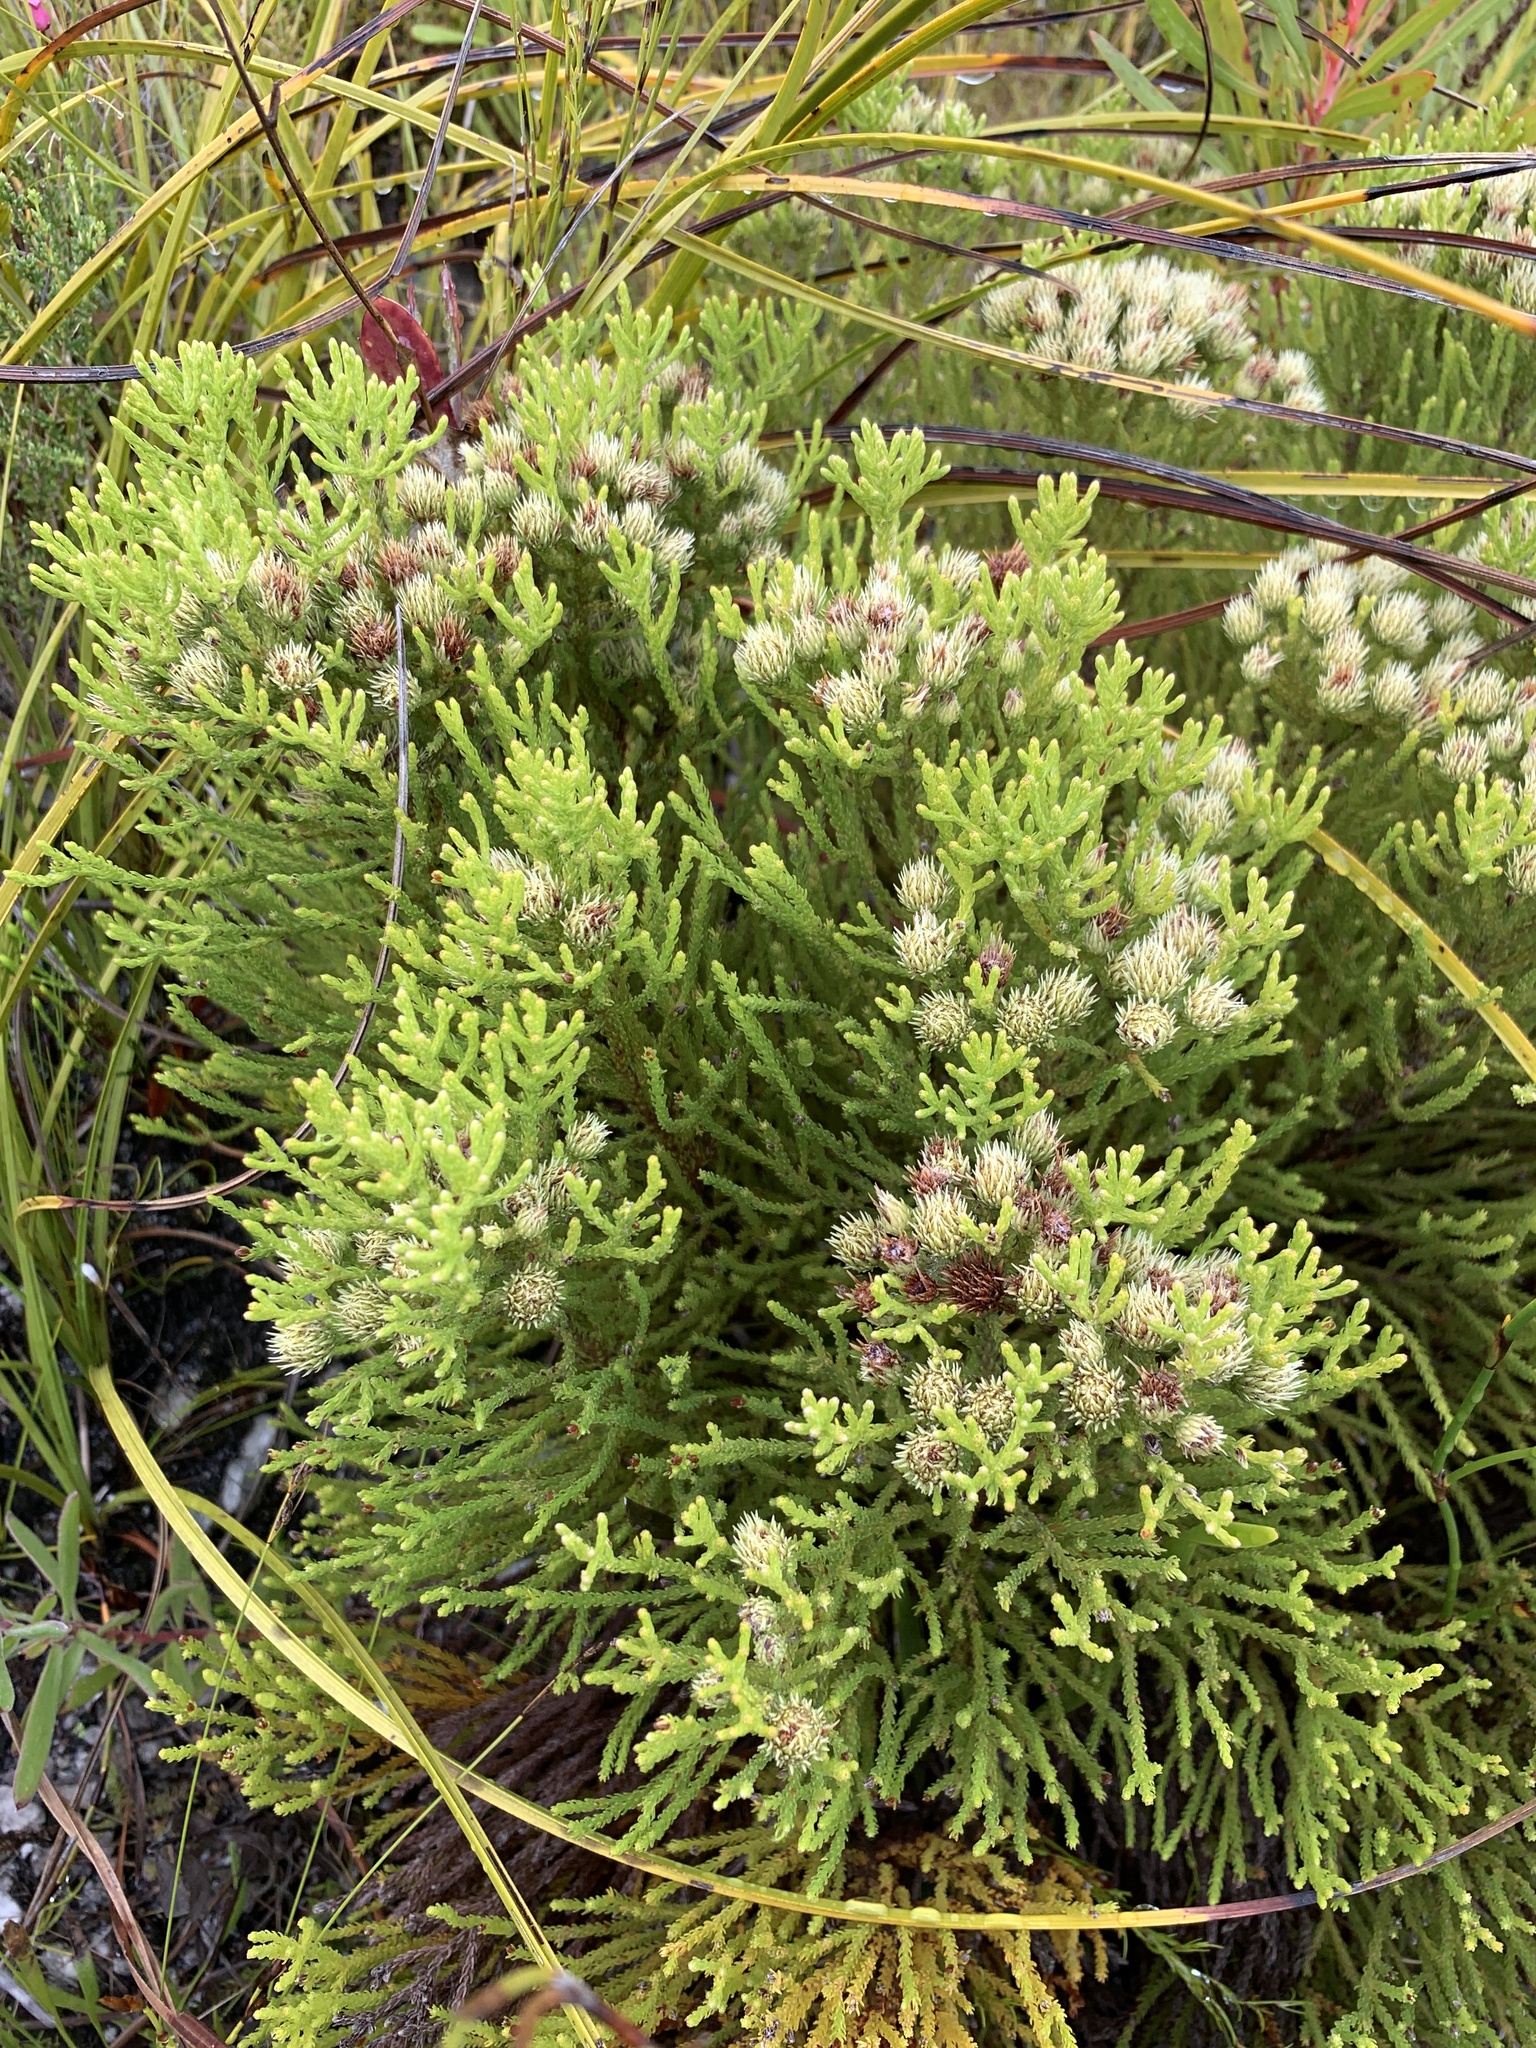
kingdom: Plantae
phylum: Tracheophyta
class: Magnoliopsida
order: Bruniales
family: Bruniaceae
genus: Brunia
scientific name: Brunia paleacea
